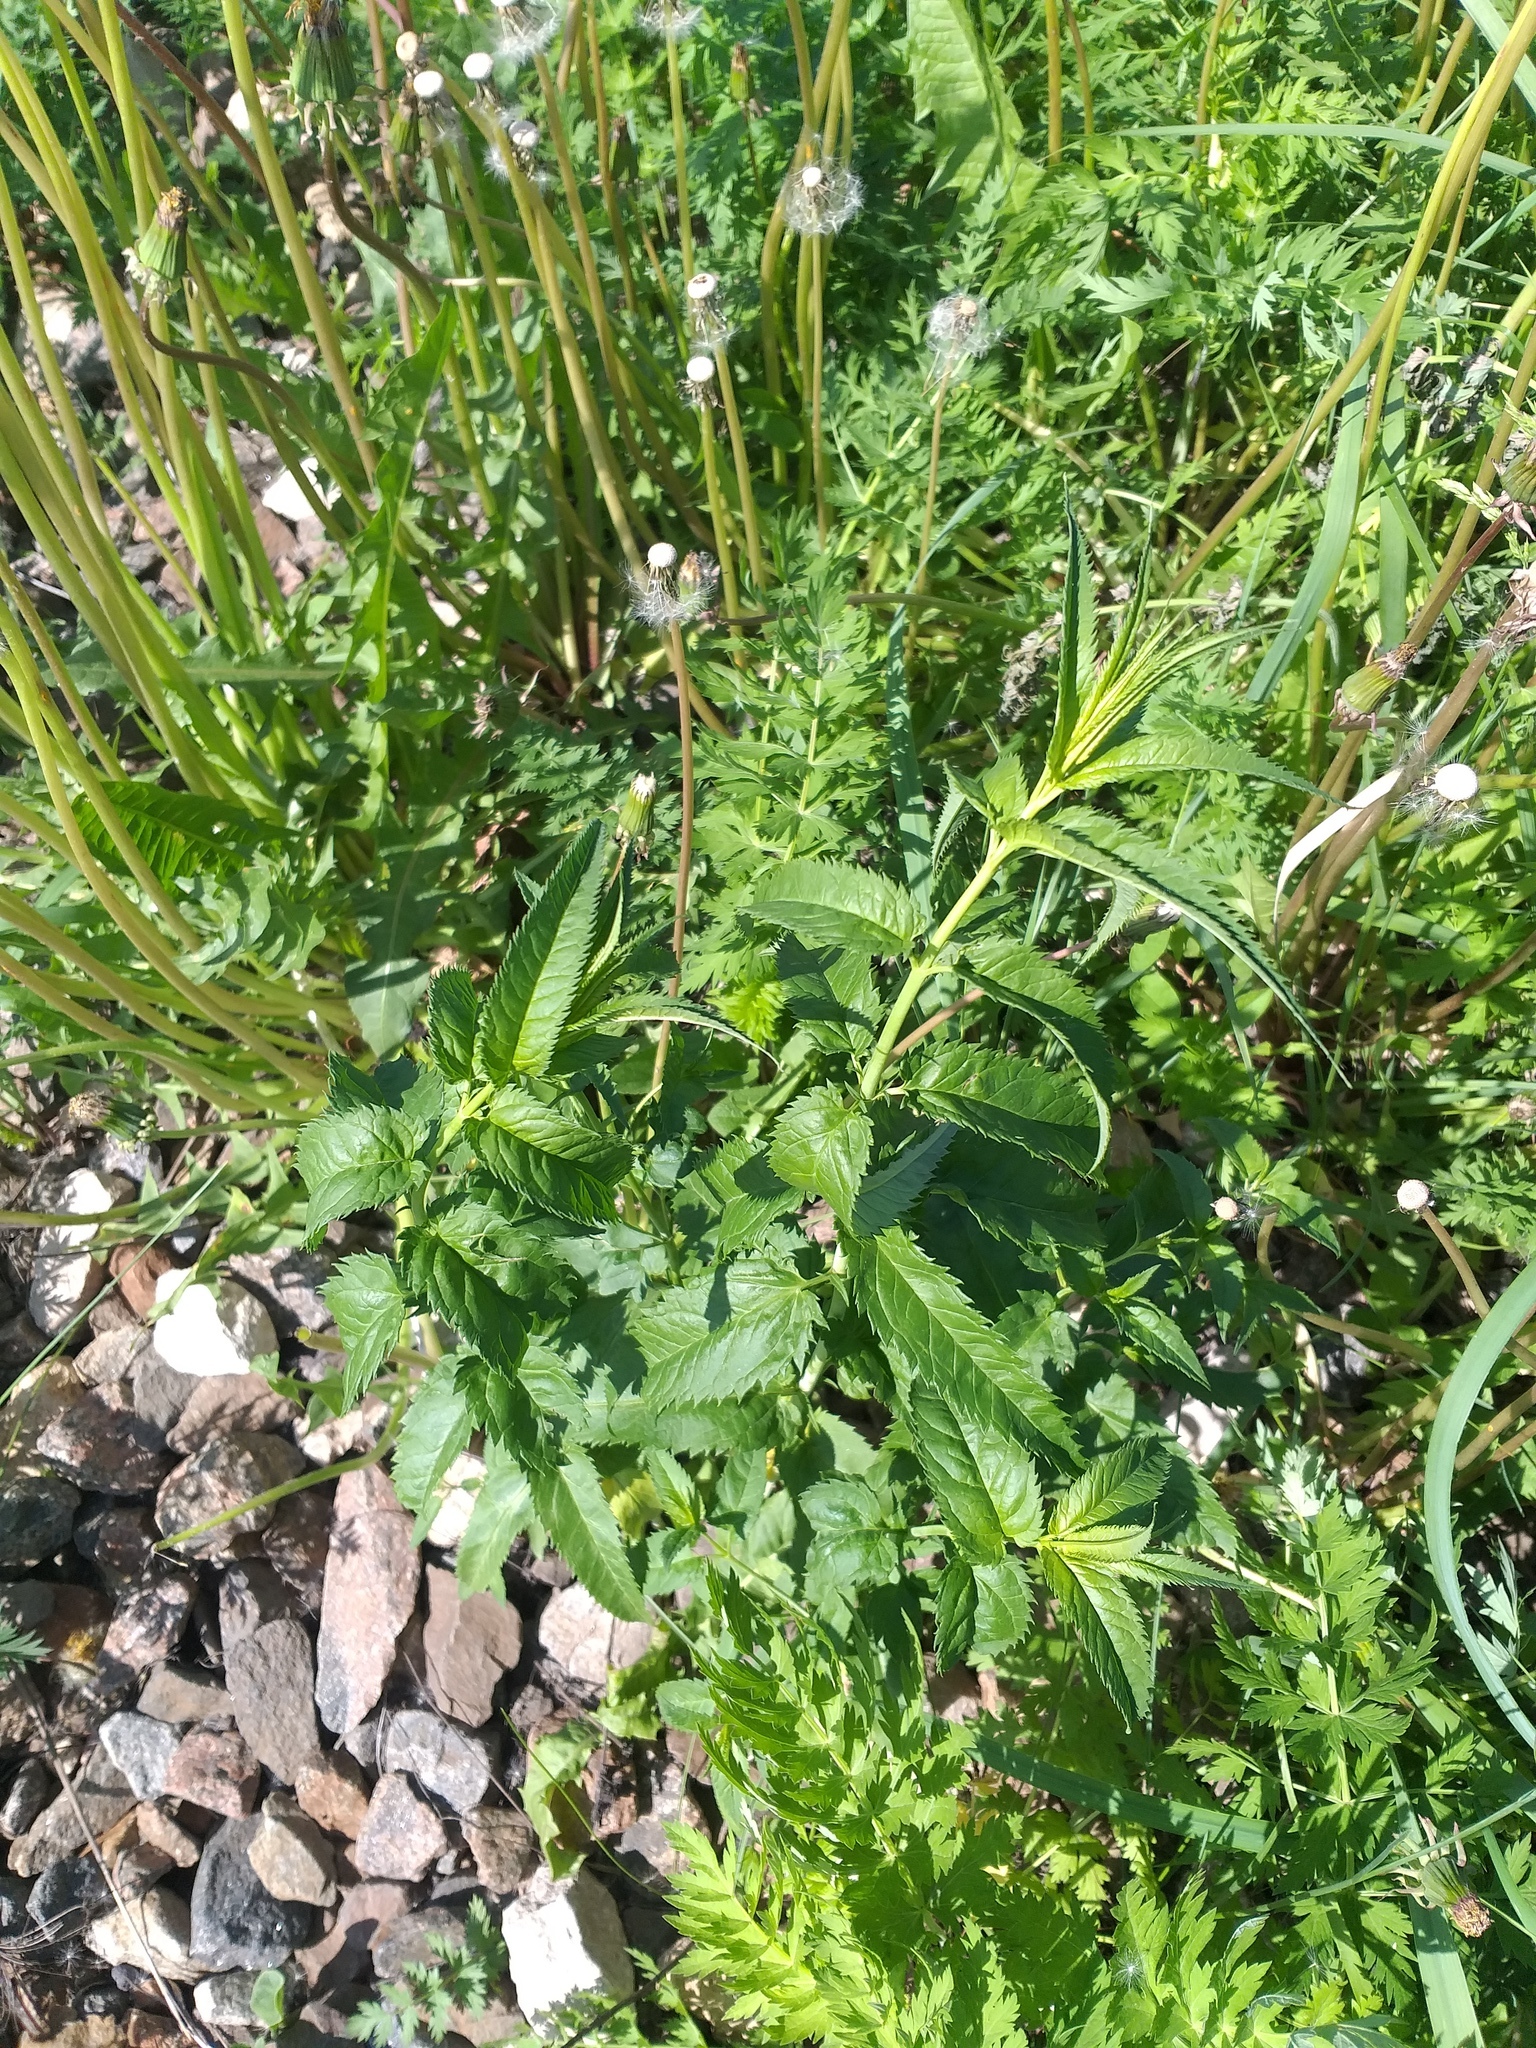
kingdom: Plantae
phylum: Tracheophyta
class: Magnoliopsida
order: Lamiales
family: Plantaginaceae
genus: Veronica
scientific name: Veronica longifolia
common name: Garden speedwell
